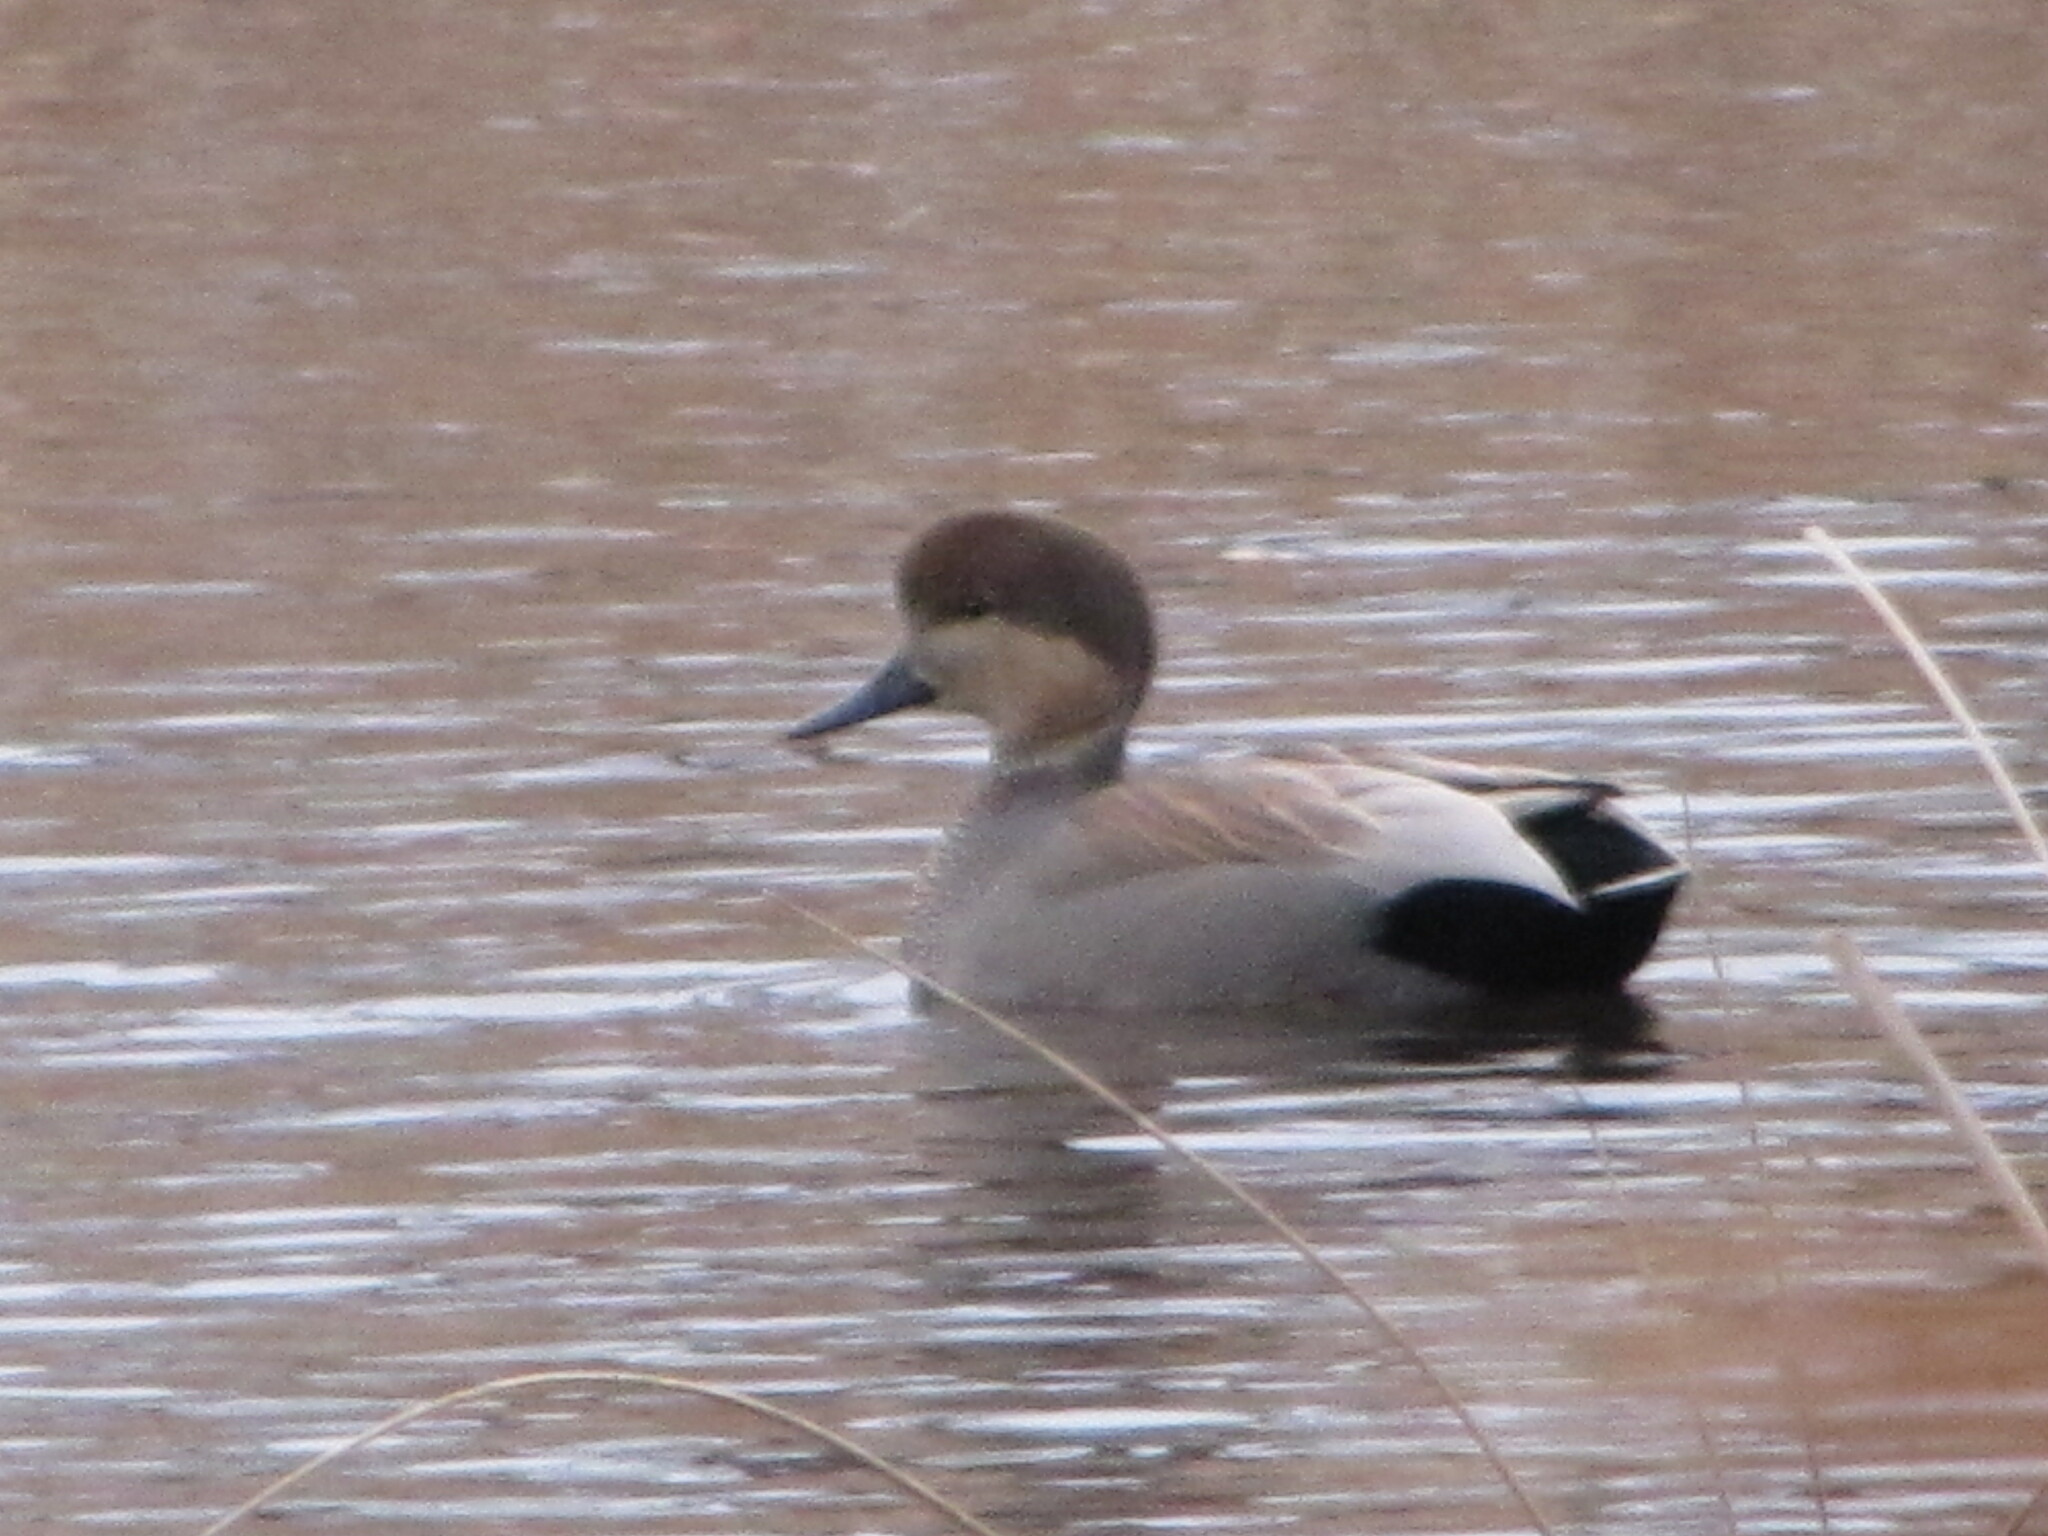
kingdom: Animalia
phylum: Chordata
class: Aves
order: Anseriformes
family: Anatidae
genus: Mareca
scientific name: Mareca strepera
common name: Gadwall
